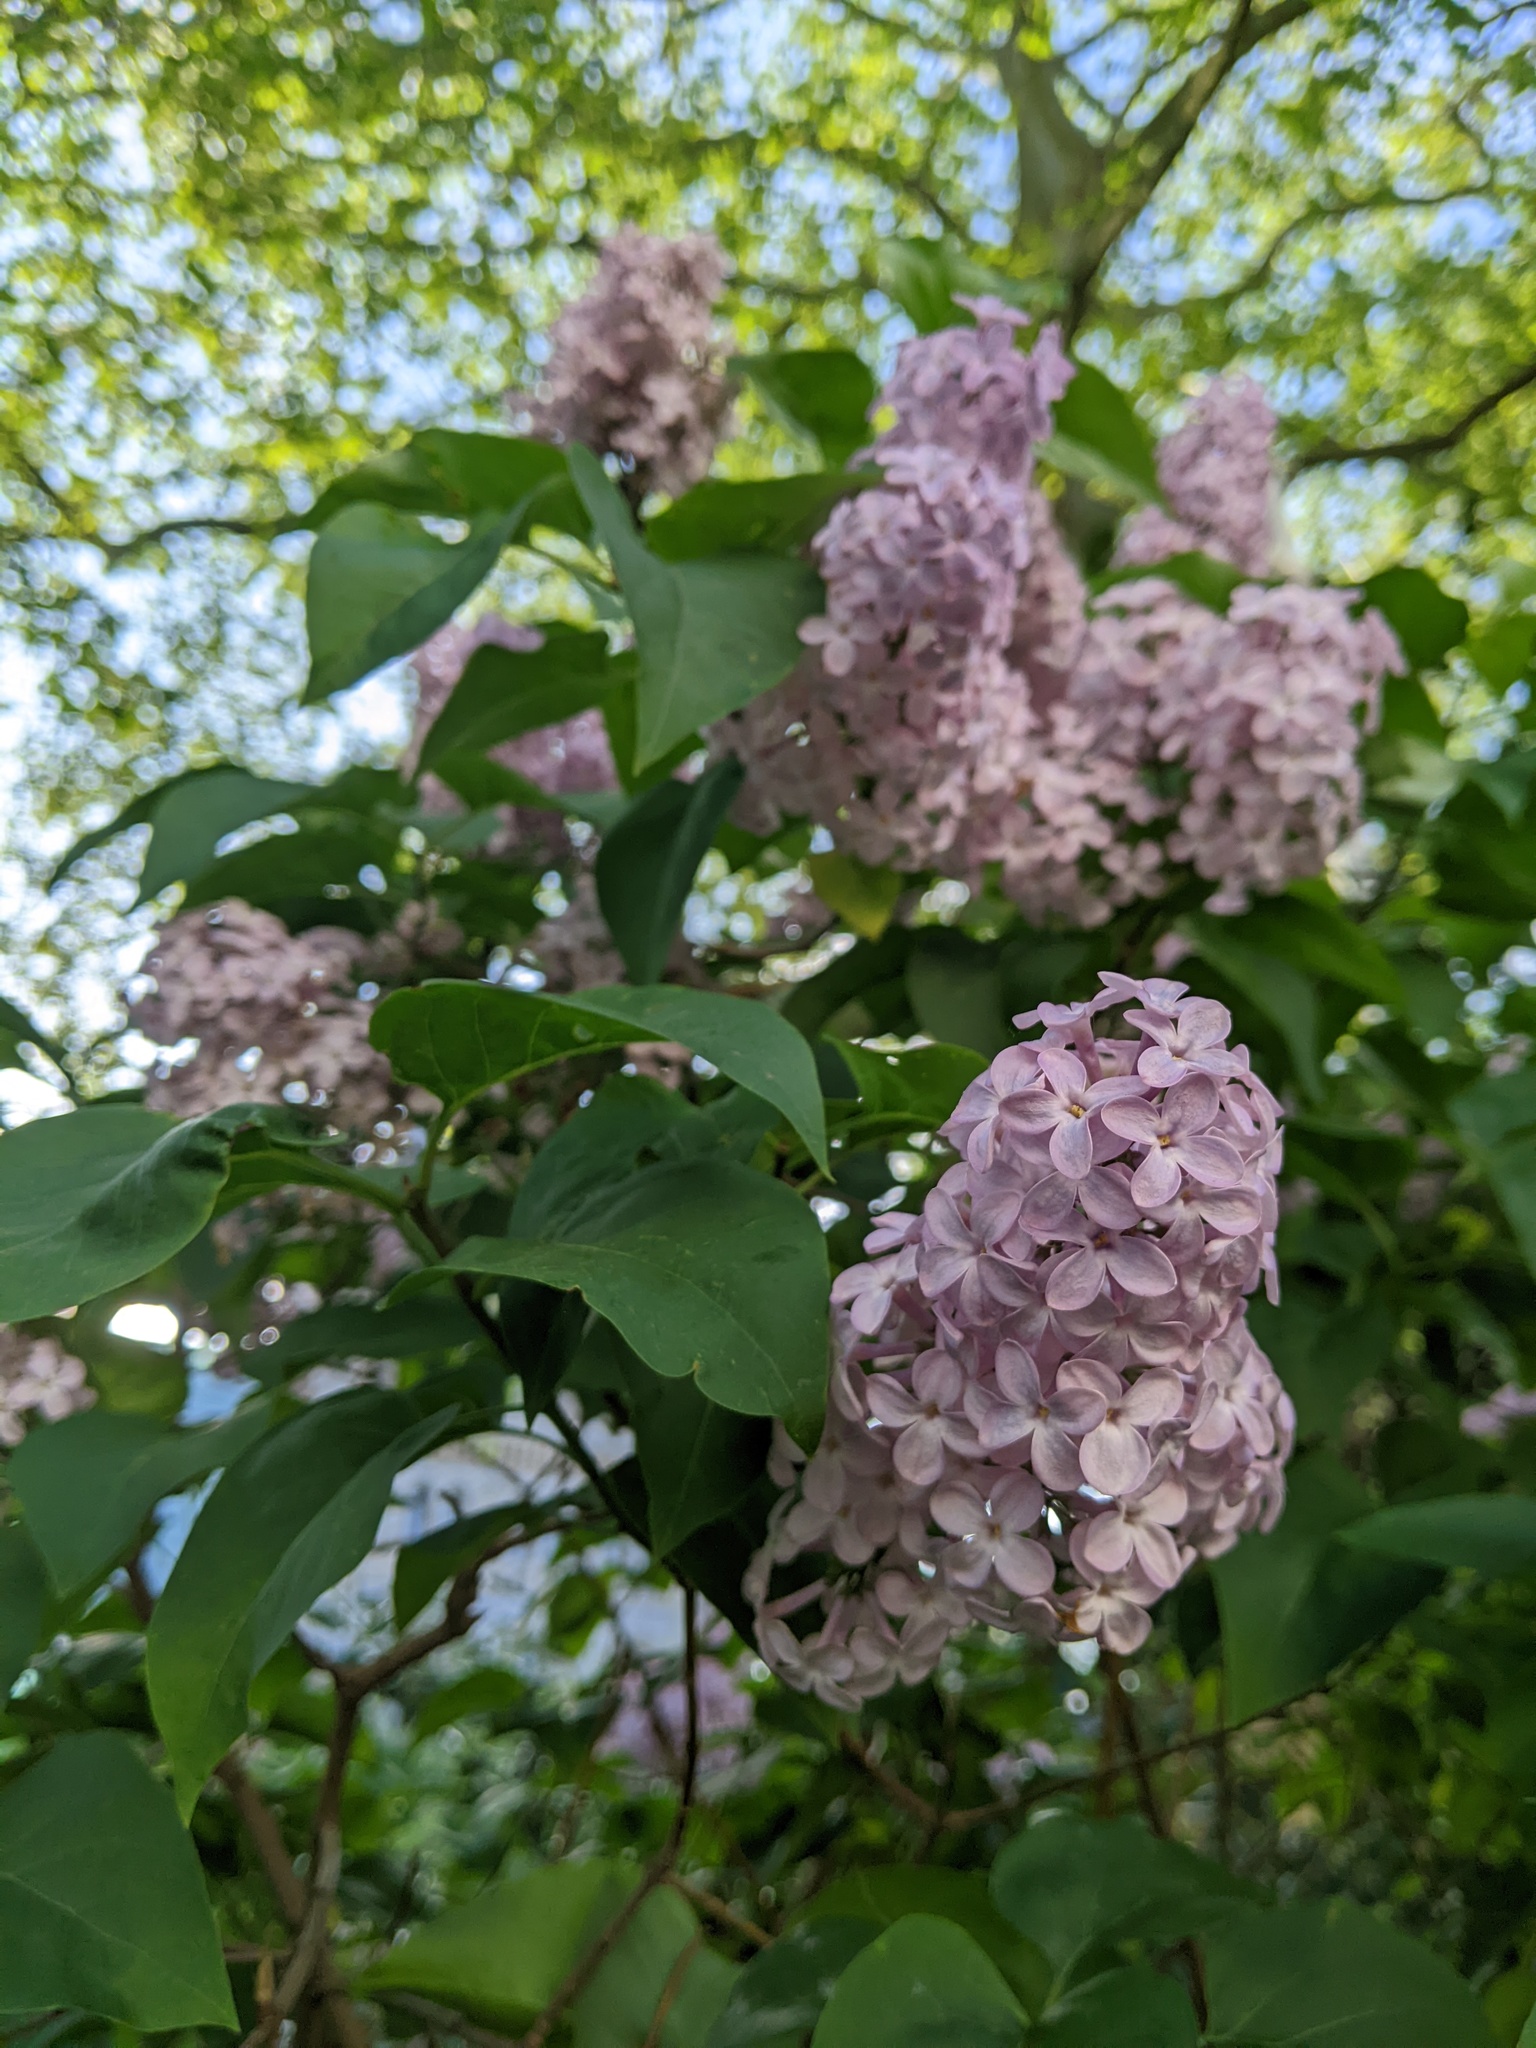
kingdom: Plantae
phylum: Tracheophyta
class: Magnoliopsida
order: Lamiales
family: Oleaceae
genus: Syringa
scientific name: Syringa vulgaris
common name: Common lilac
